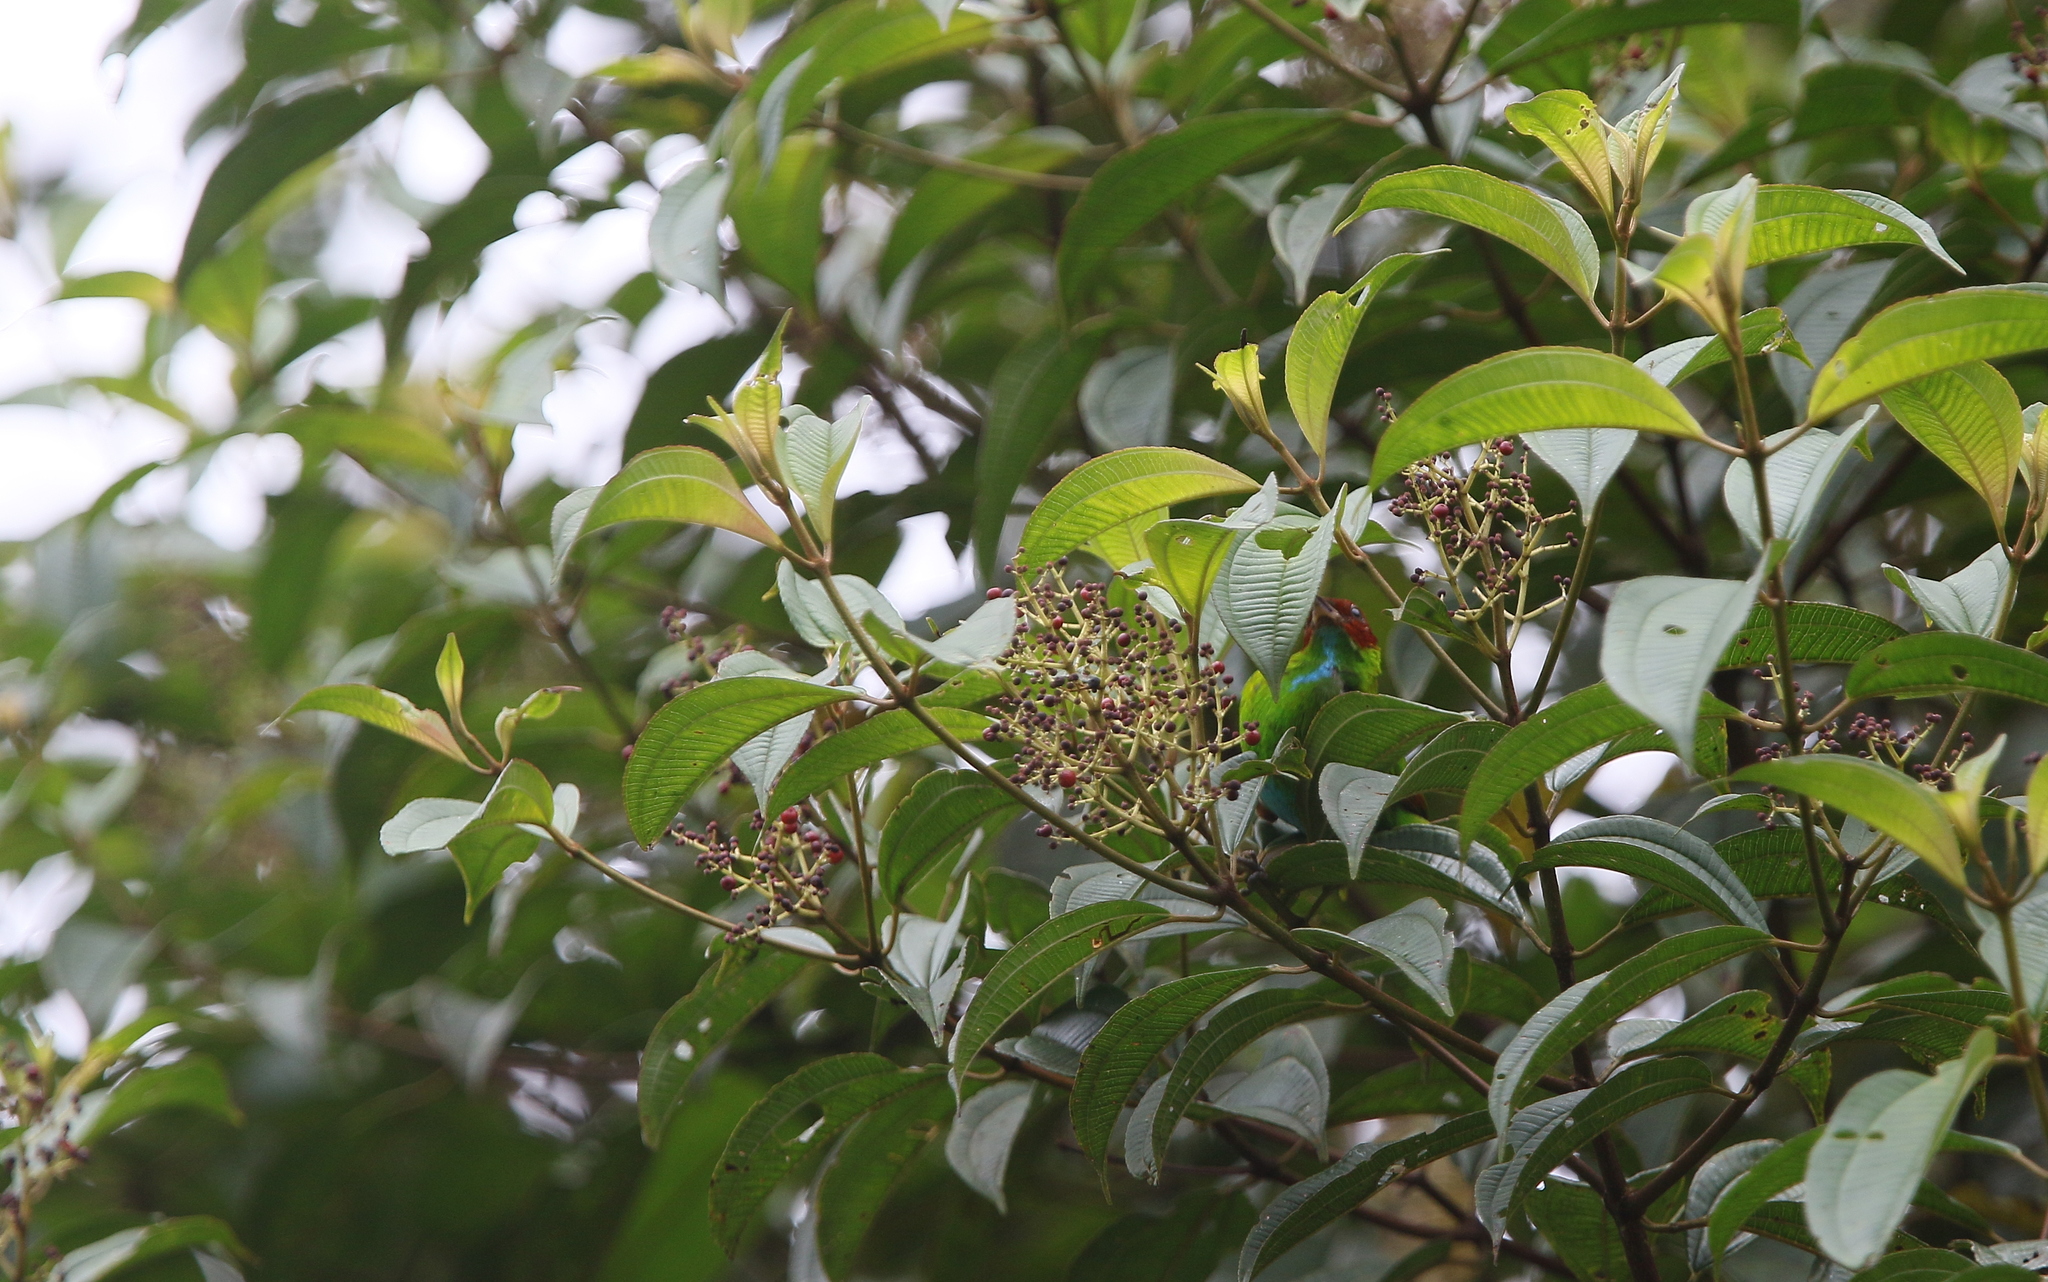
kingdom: Animalia
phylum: Chordata
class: Aves
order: Passeriformes
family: Thraupidae
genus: Tangara
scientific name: Tangara lavinia
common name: Rufous-winged tanager
